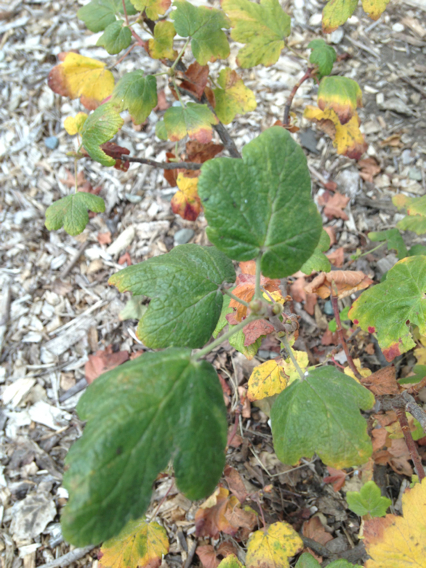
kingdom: Plantae
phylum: Tracheophyta
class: Magnoliopsida
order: Saxifragales
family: Grossulariaceae
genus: Ribes
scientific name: Ribes sanguineum
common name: Flowering currant
